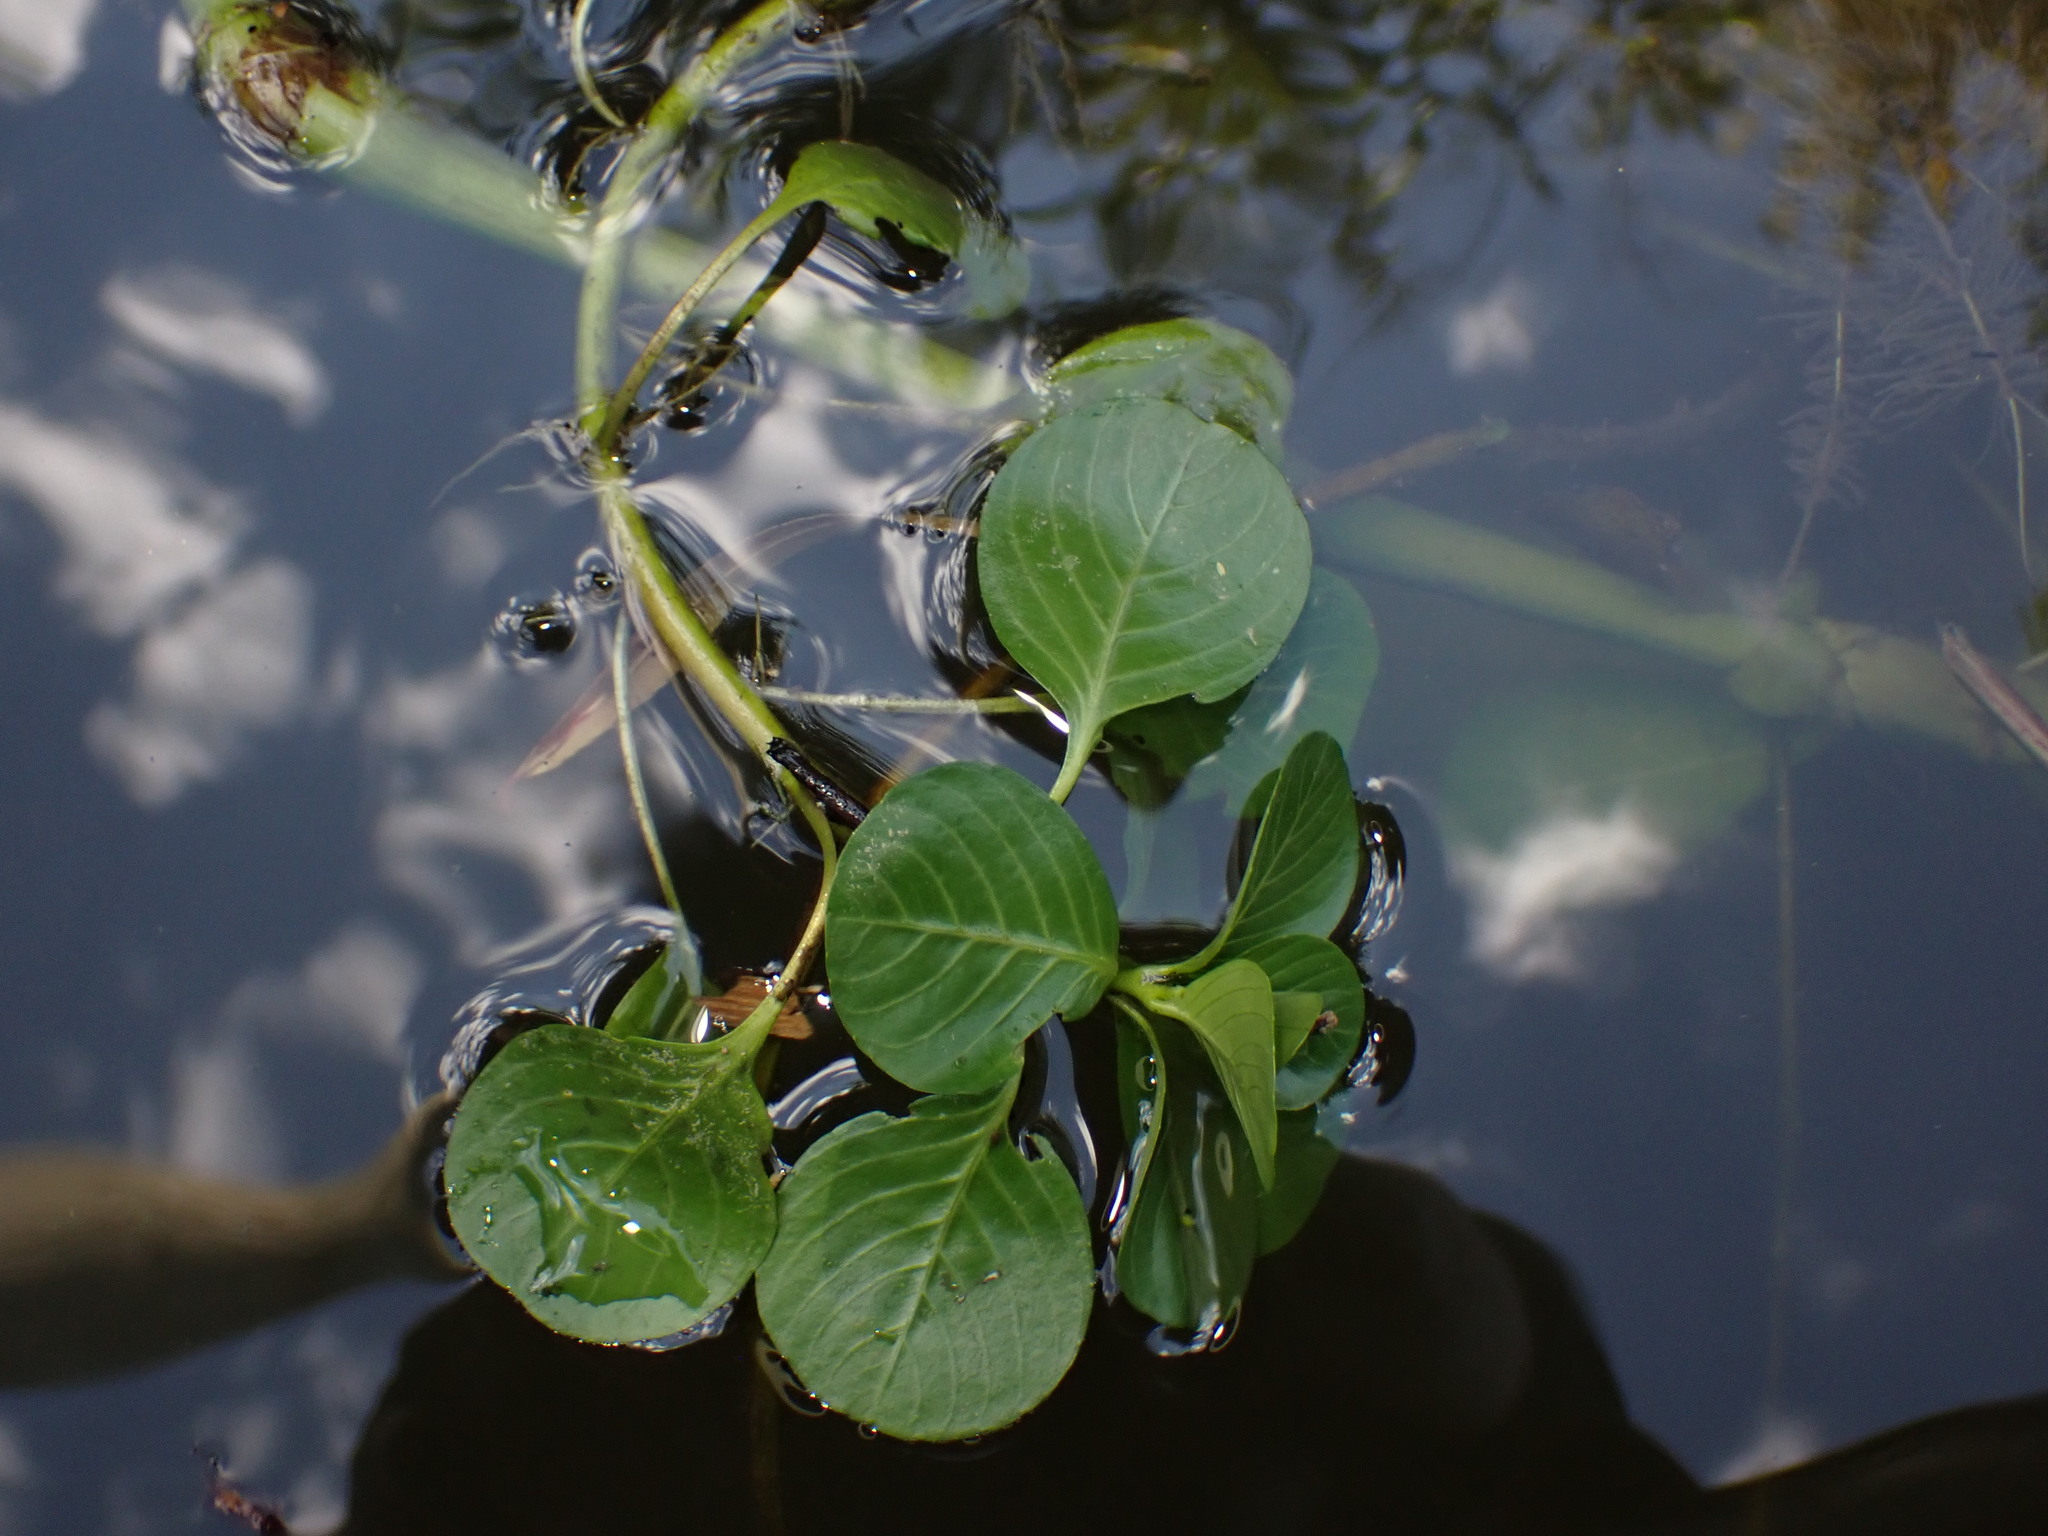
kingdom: Plantae
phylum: Tracheophyta
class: Magnoliopsida
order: Myrtales
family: Onagraceae
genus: Ludwigia
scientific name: Ludwigia peploides
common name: Floating primrose-willow
